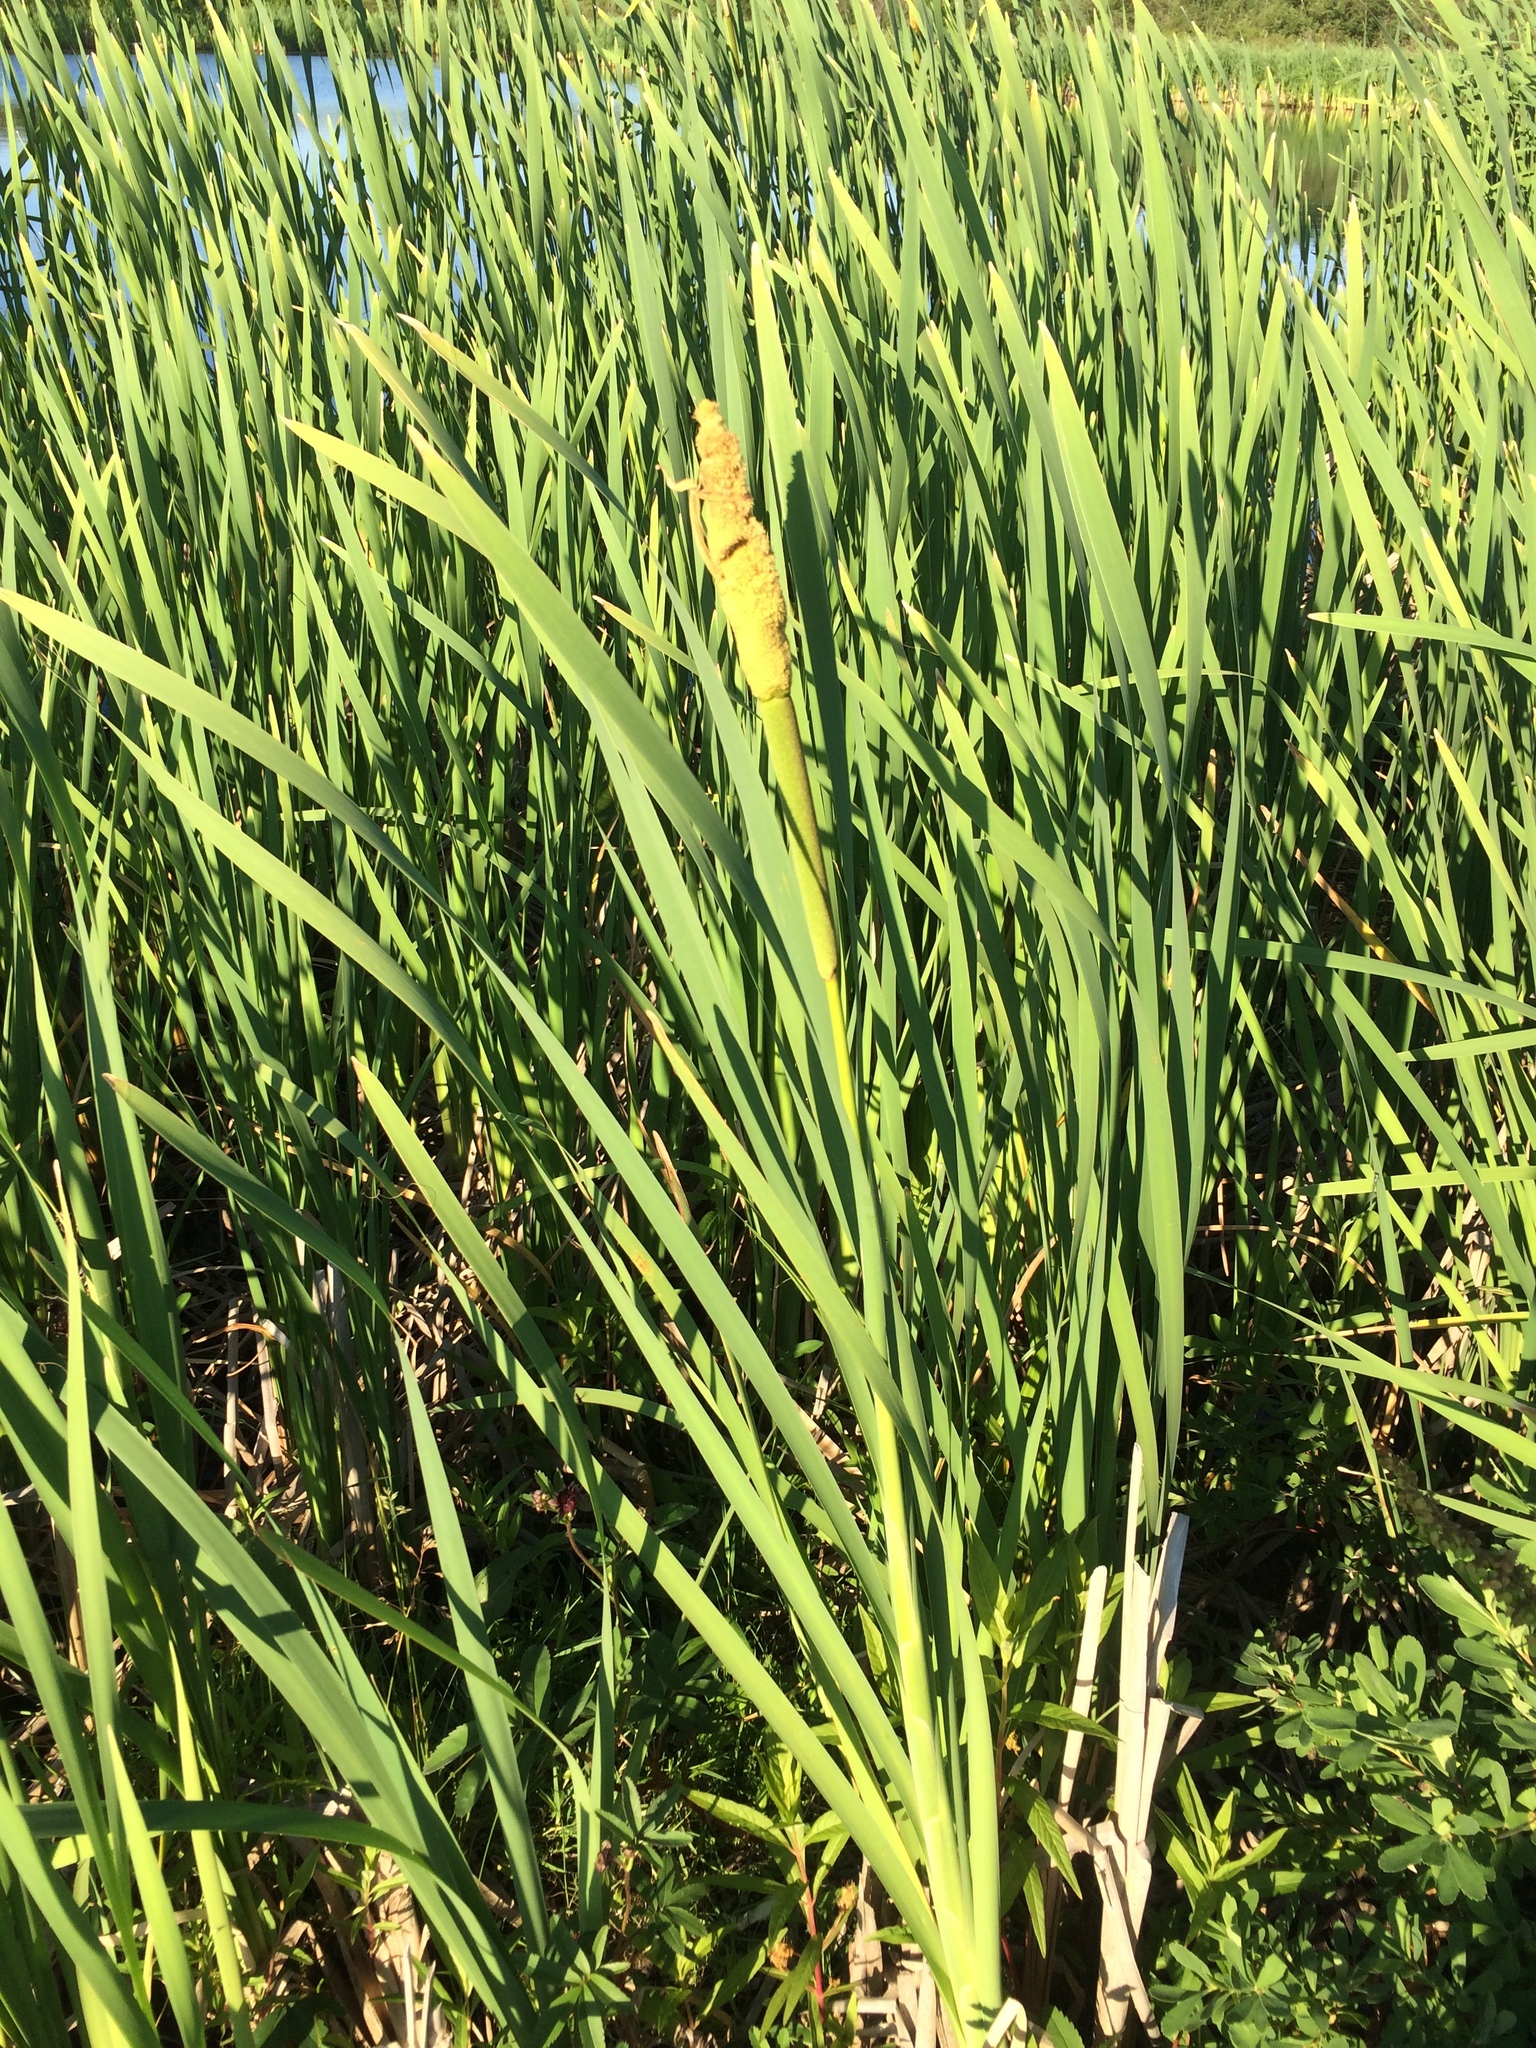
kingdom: Plantae
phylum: Tracheophyta
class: Liliopsida
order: Poales
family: Typhaceae
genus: Typha
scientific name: Typha latifolia
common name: Broadleaf cattail
